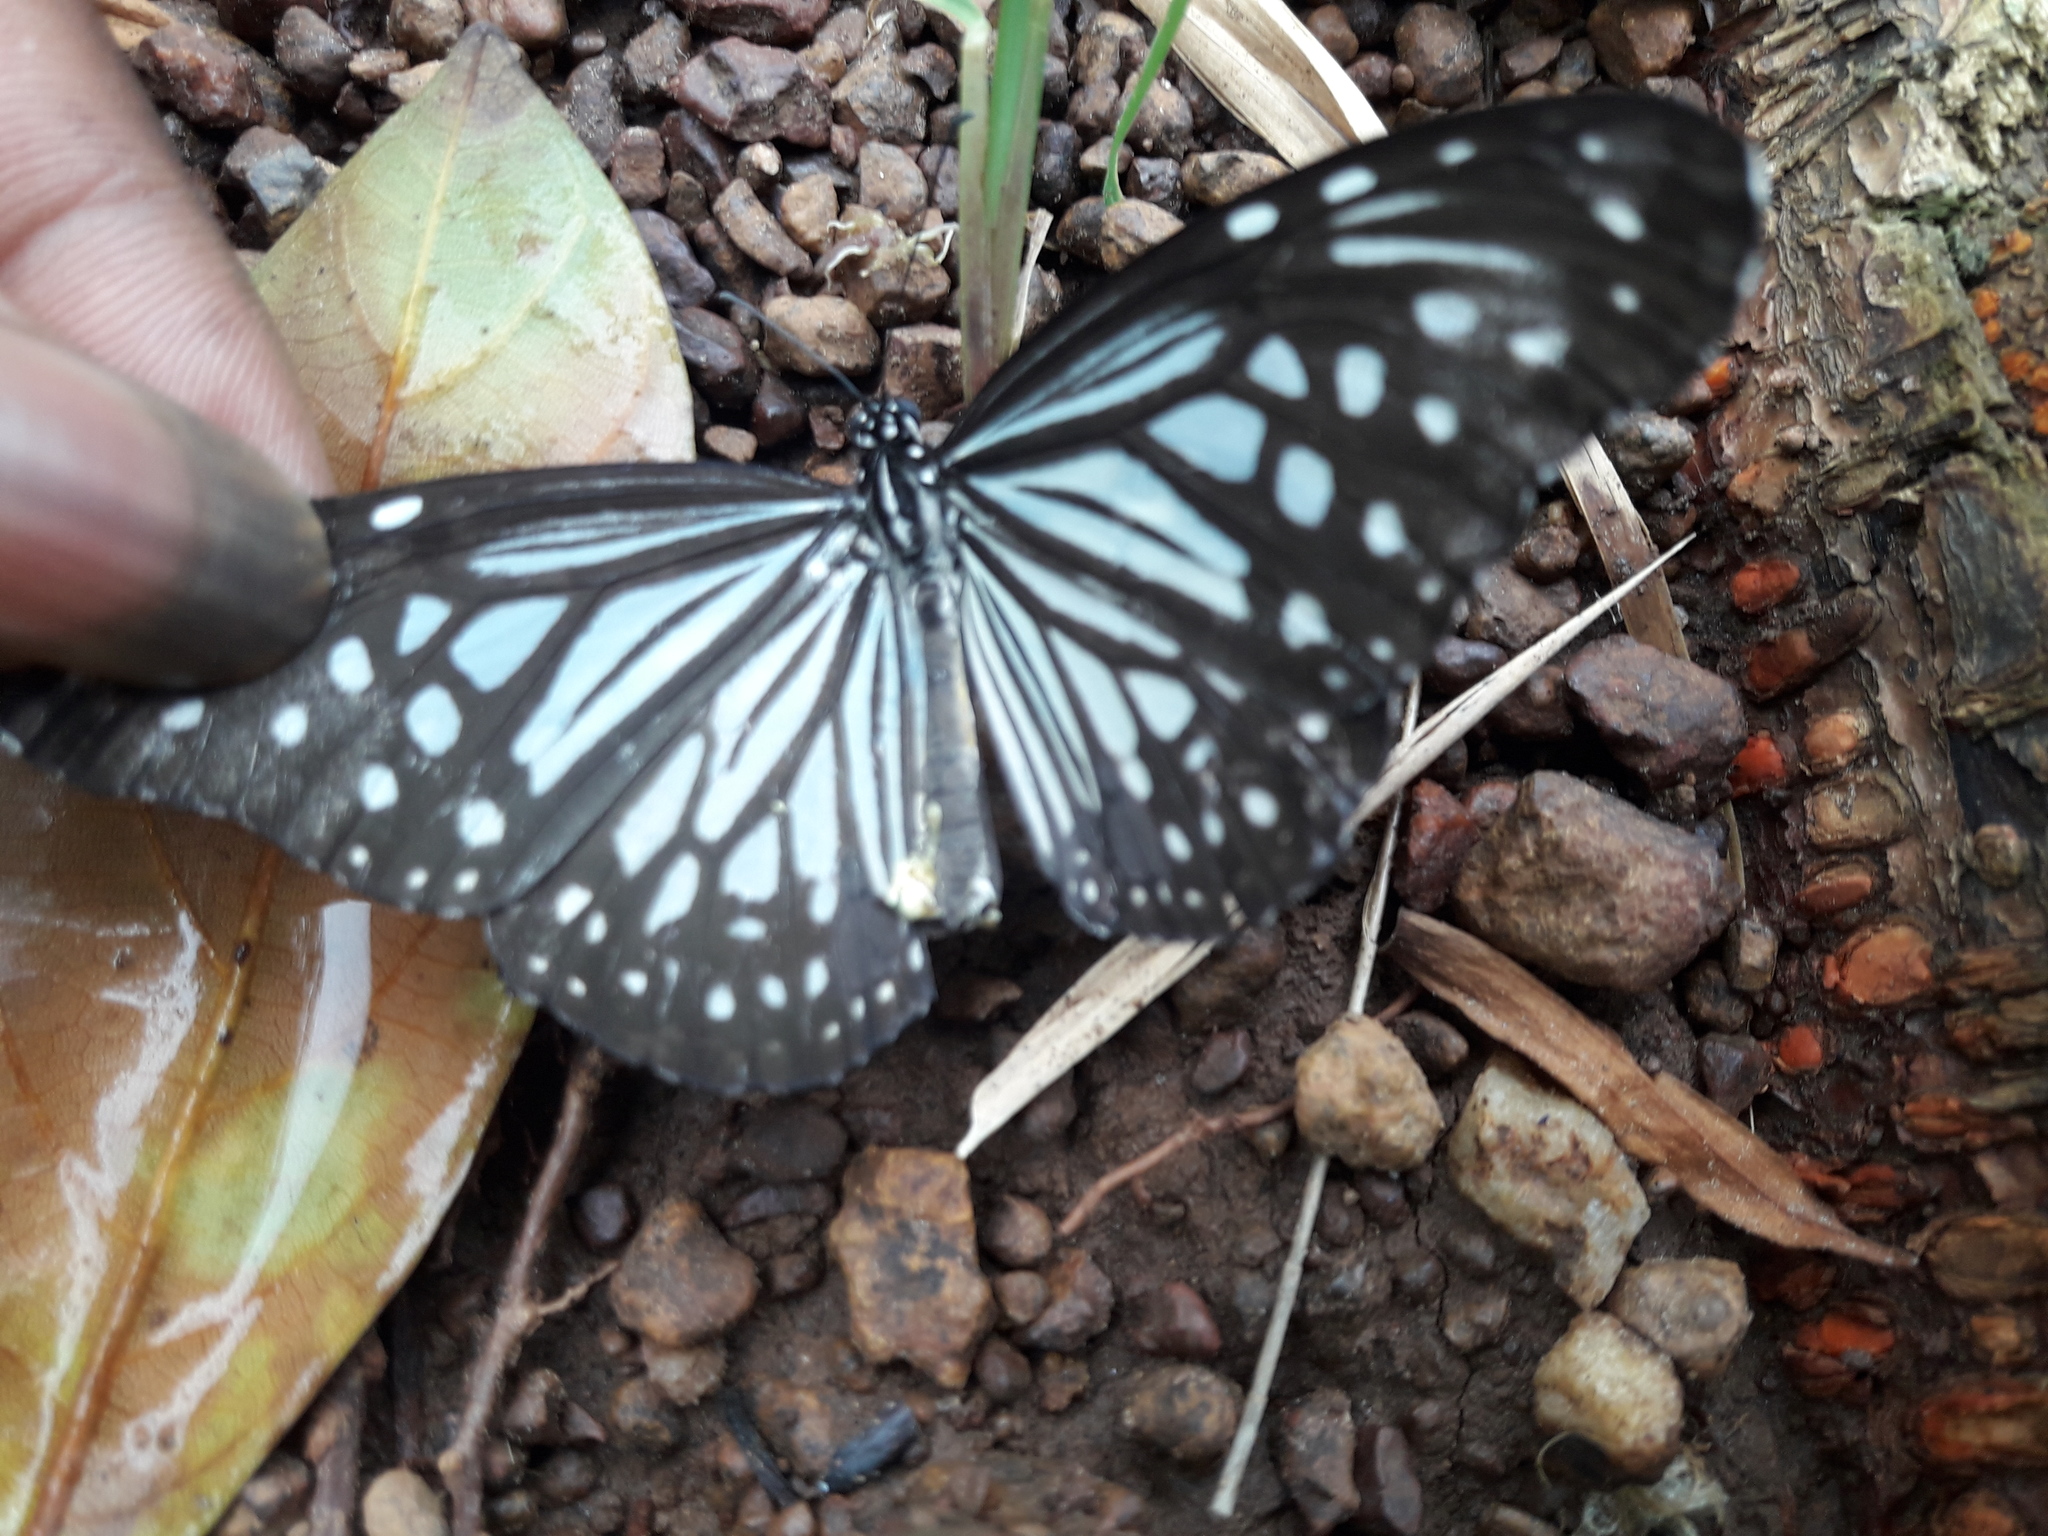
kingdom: Animalia
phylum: Arthropoda
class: Insecta
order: Lepidoptera
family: Nymphalidae
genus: Parantica
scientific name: Parantica aglea
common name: Glassy tiger
